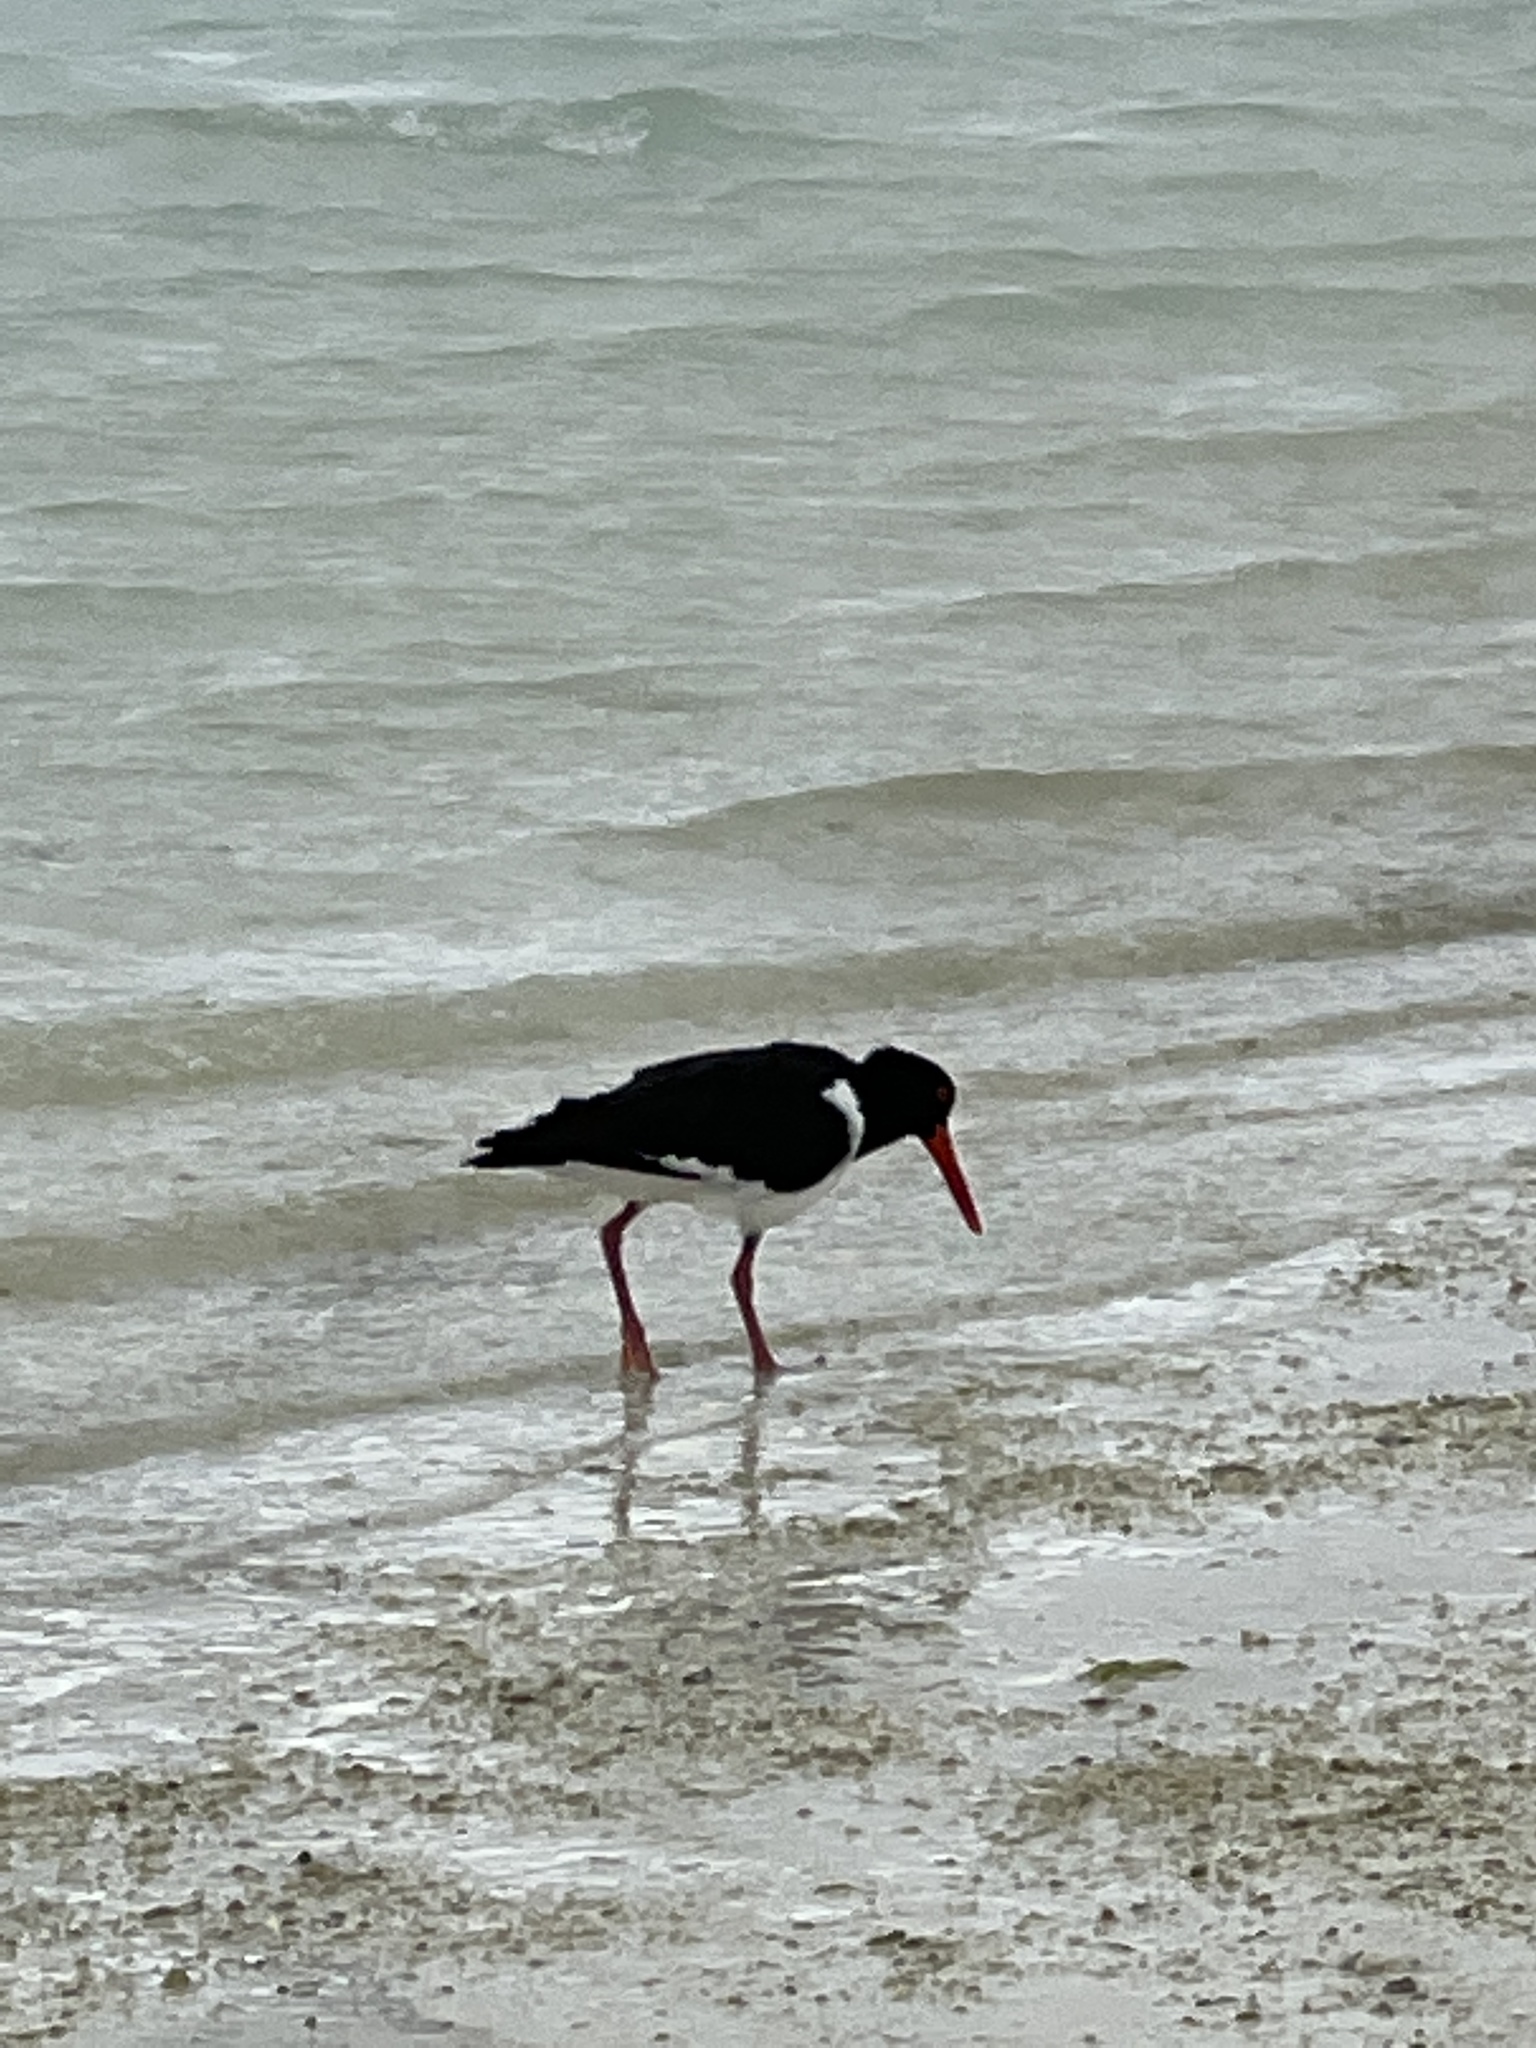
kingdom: Animalia
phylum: Chordata
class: Aves
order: Charadriiformes
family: Haematopodidae
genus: Haematopus
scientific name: Haematopus longirostris
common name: Pied oystercatcher
